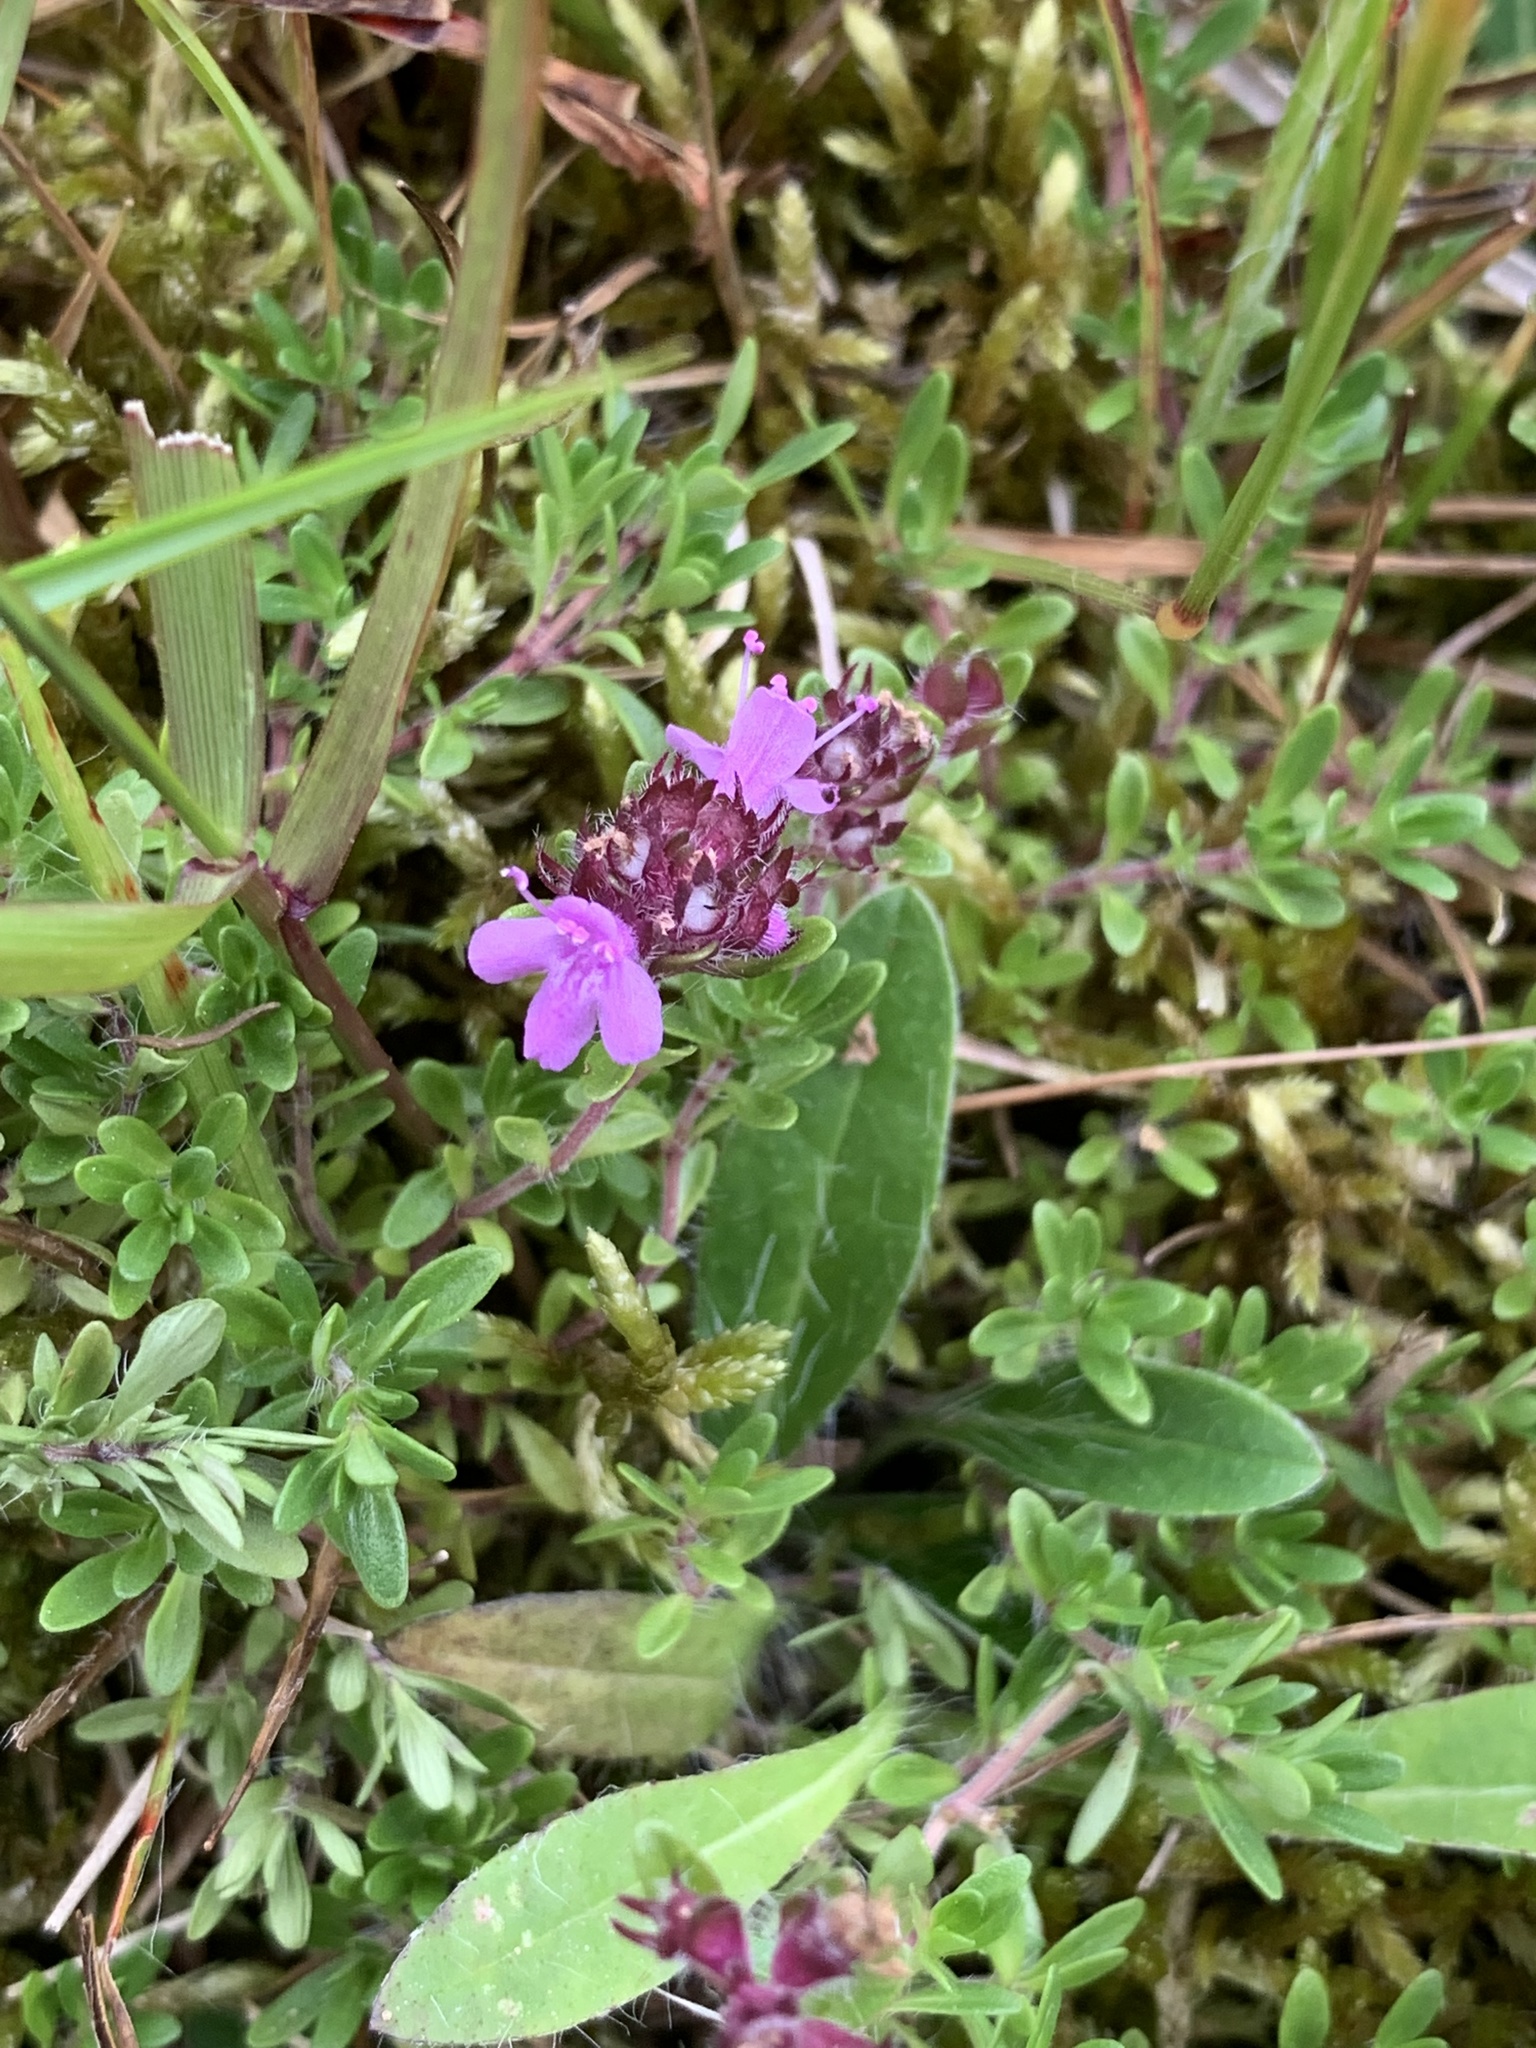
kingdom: Plantae
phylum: Tracheophyta
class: Magnoliopsida
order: Lamiales
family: Lamiaceae
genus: Thymus
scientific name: Thymus serpyllum
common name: Breckland thyme
